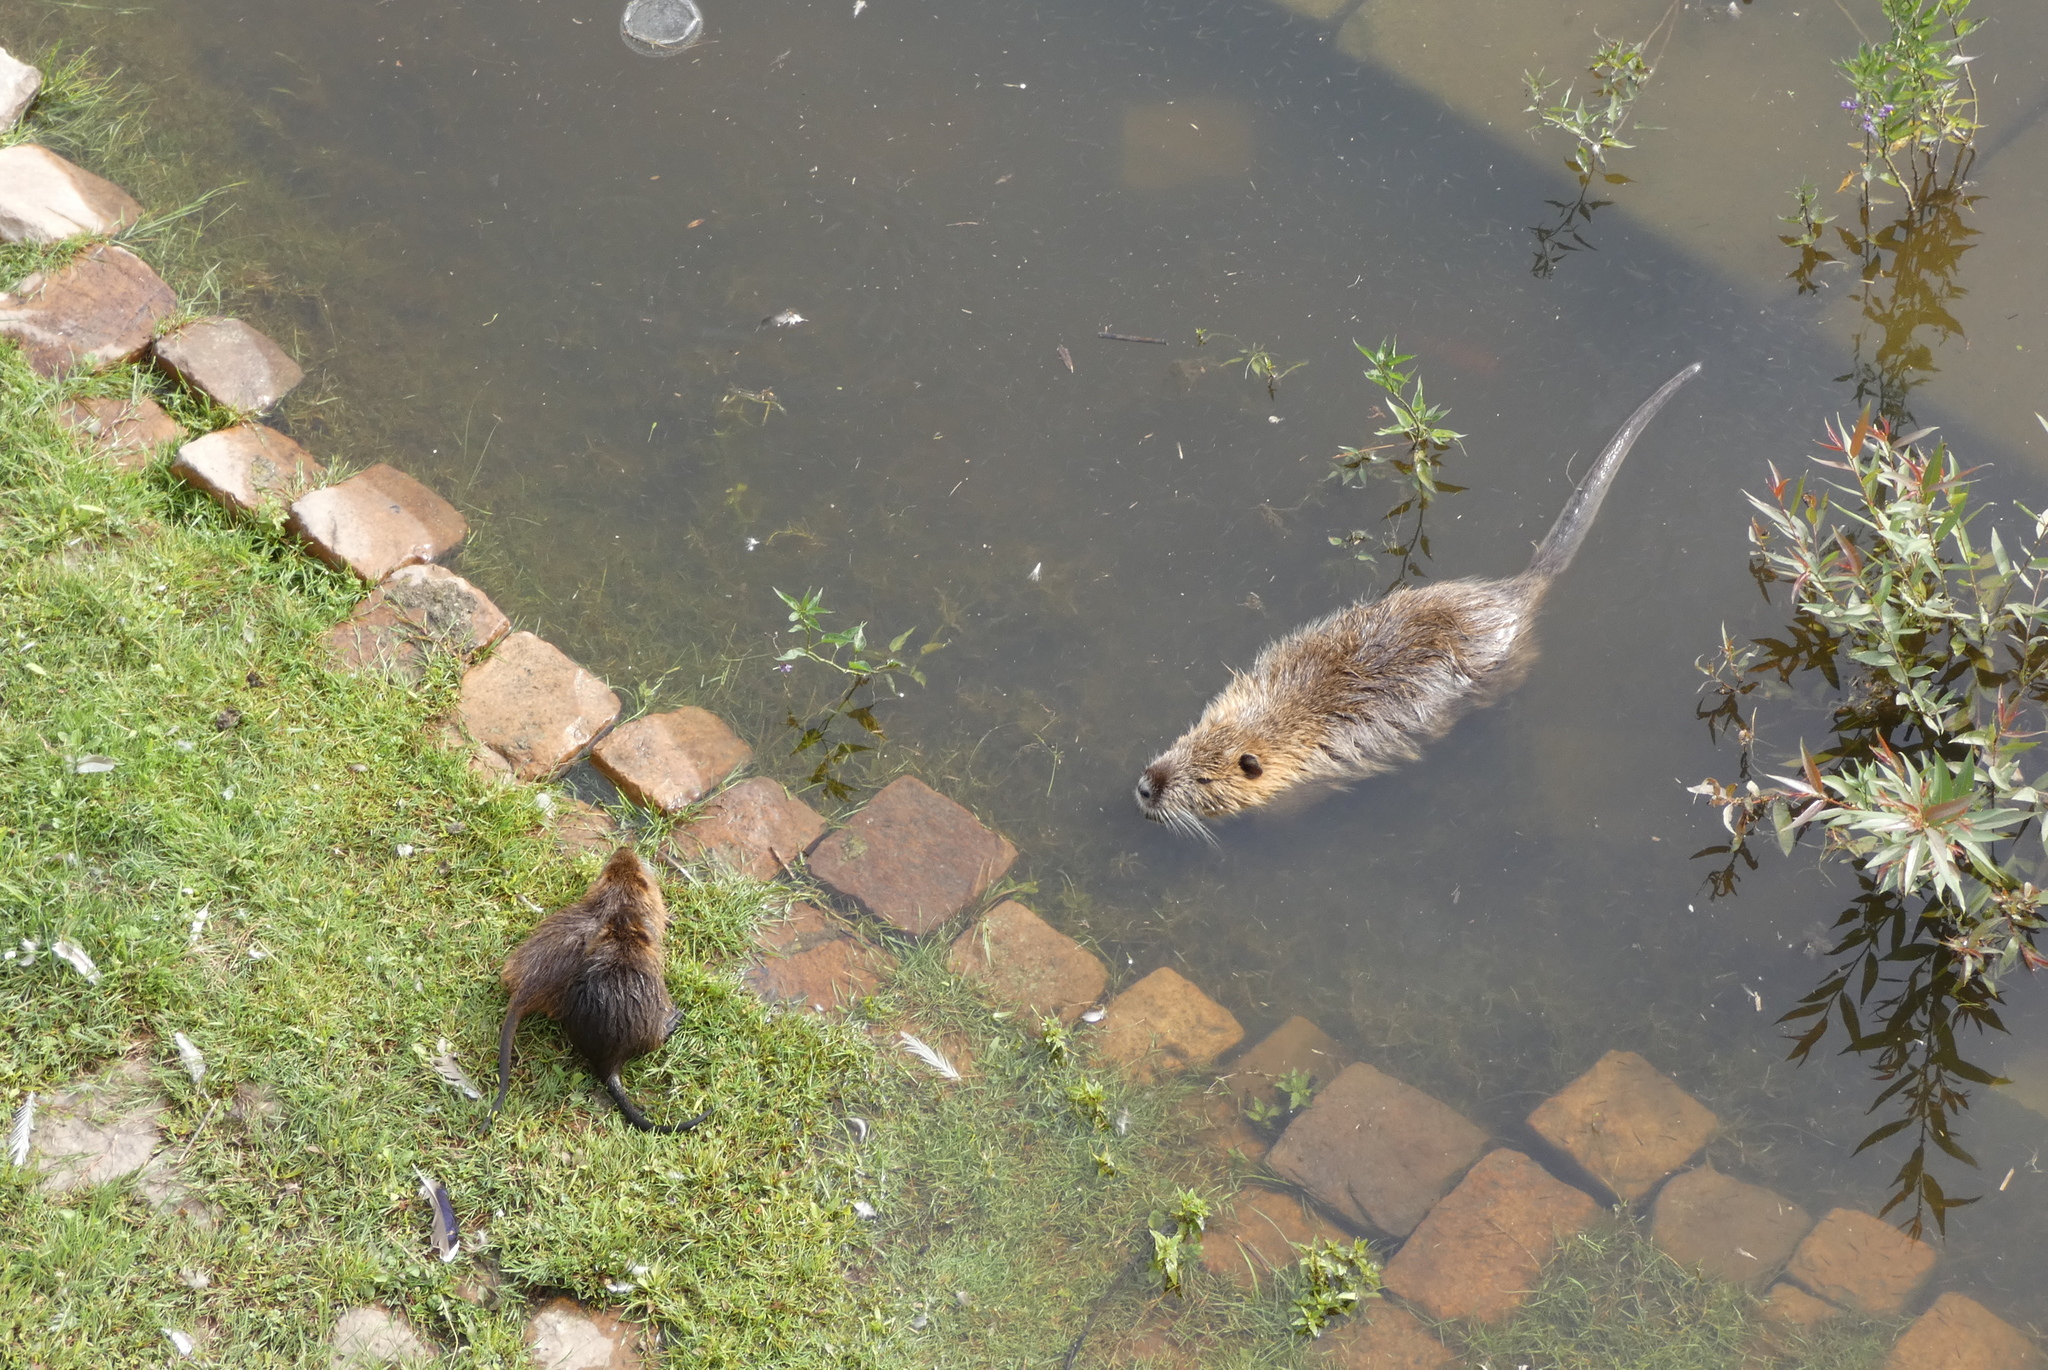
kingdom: Animalia
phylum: Chordata
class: Mammalia
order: Rodentia
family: Myocastoridae
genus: Myocastor
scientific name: Myocastor coypus
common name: Coypu
